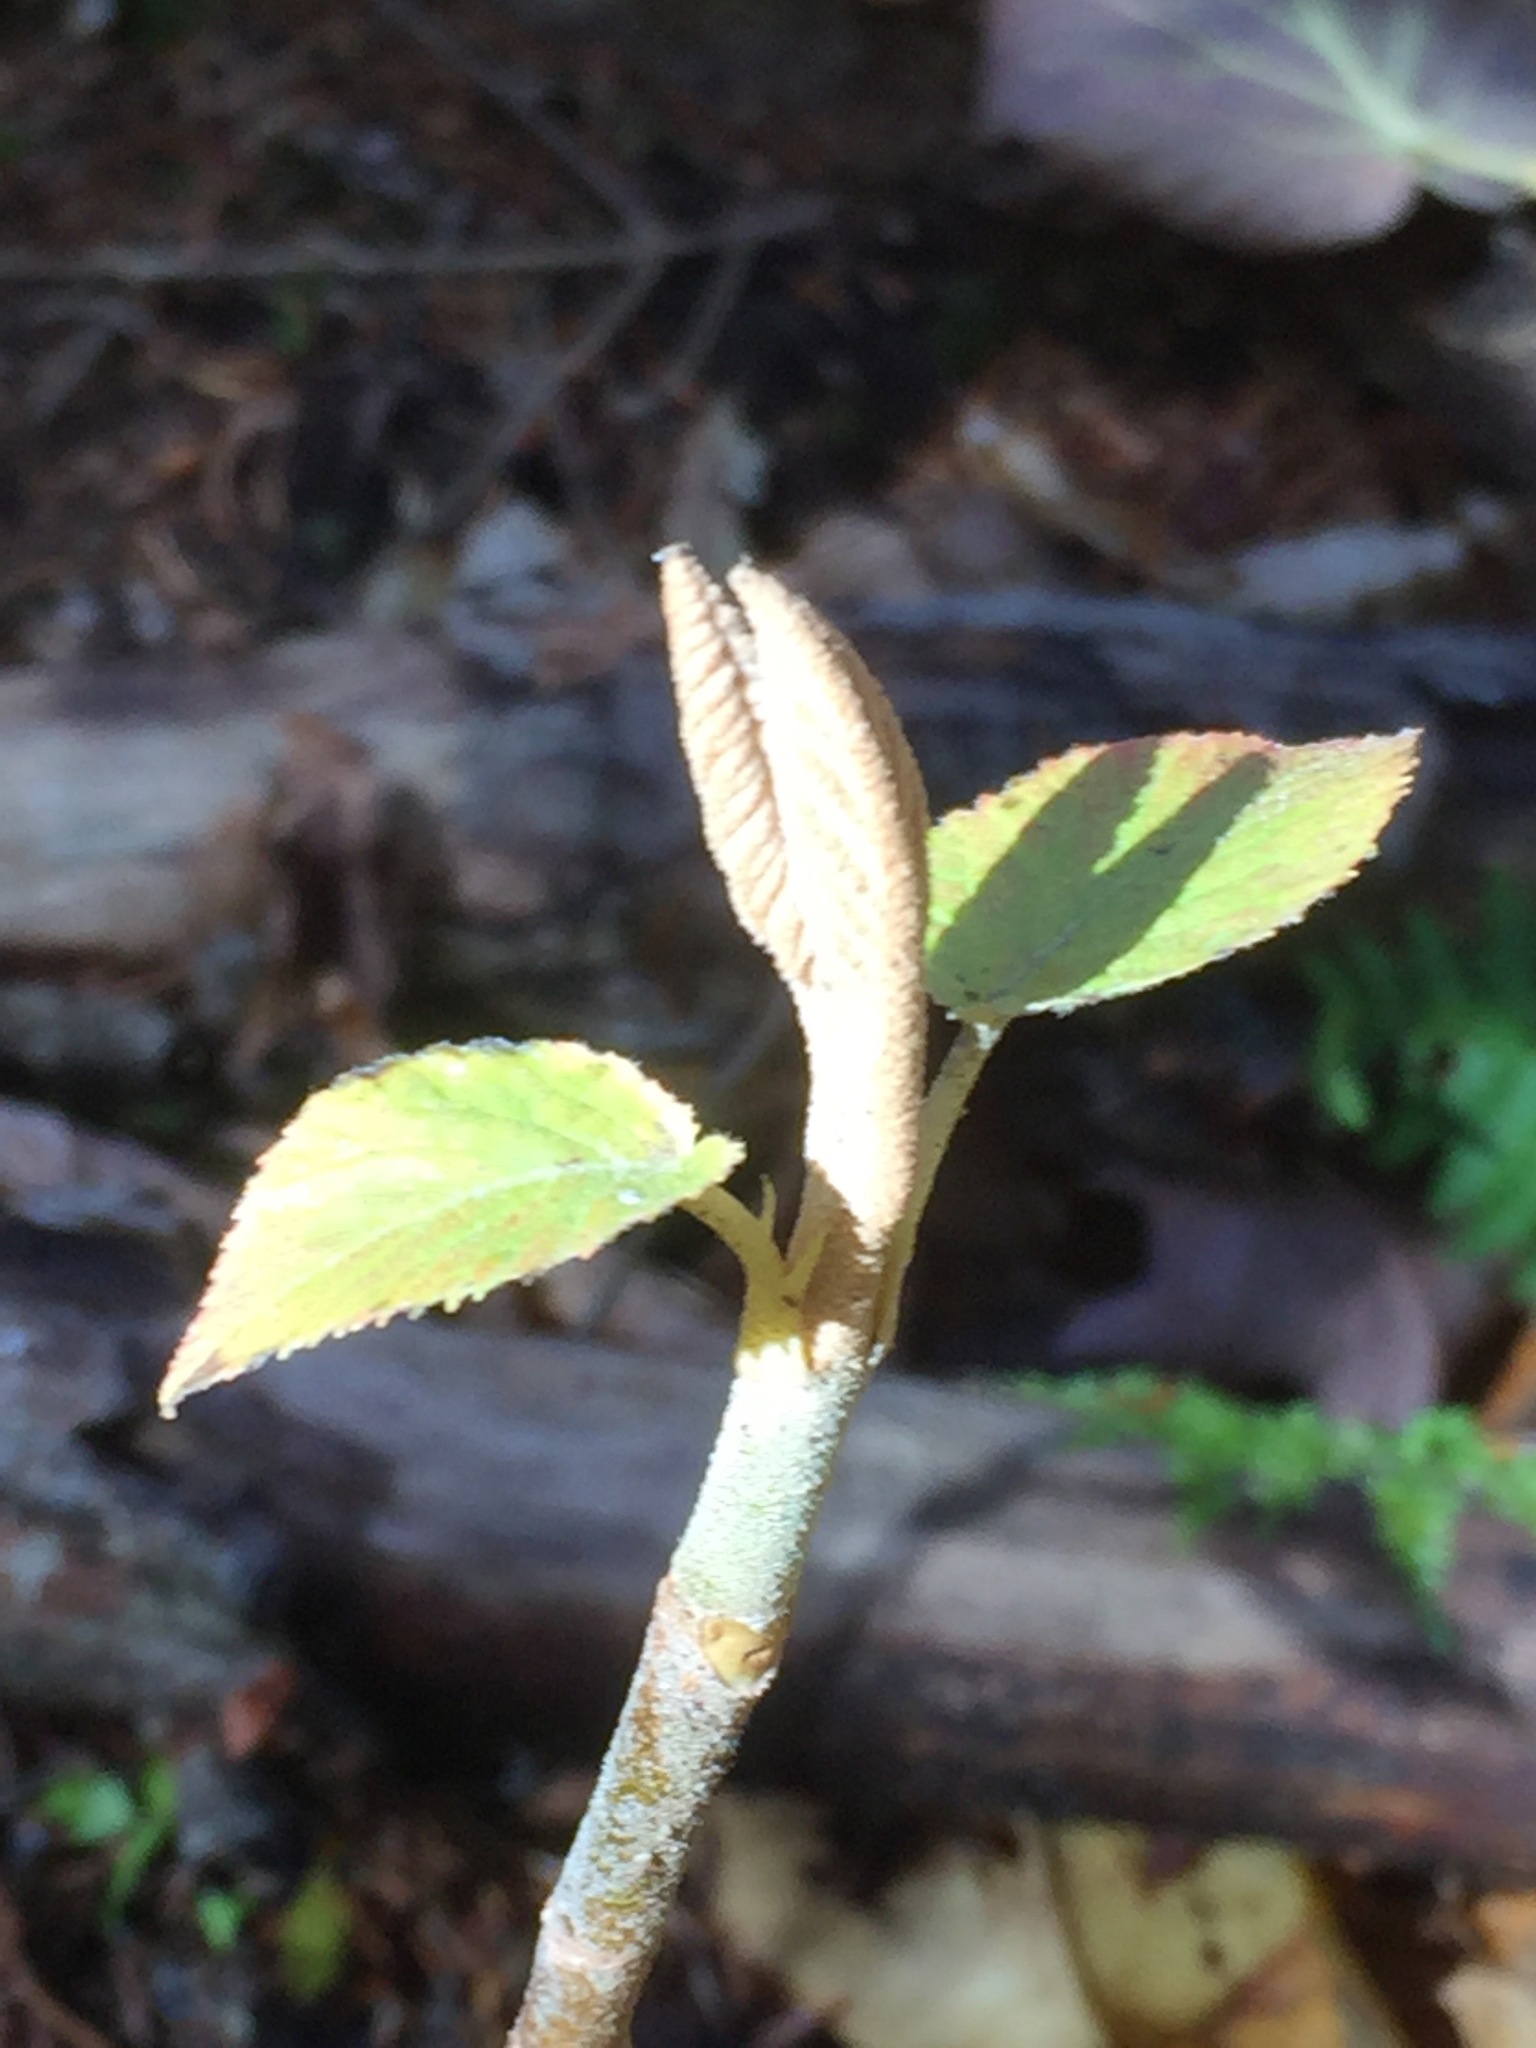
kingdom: Plantae
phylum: Tracheophyta
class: Magnoliopsida
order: Dipsacales
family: Viburnaceae
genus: Viburnum
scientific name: Viburnum lantanoides
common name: Hobblebush
